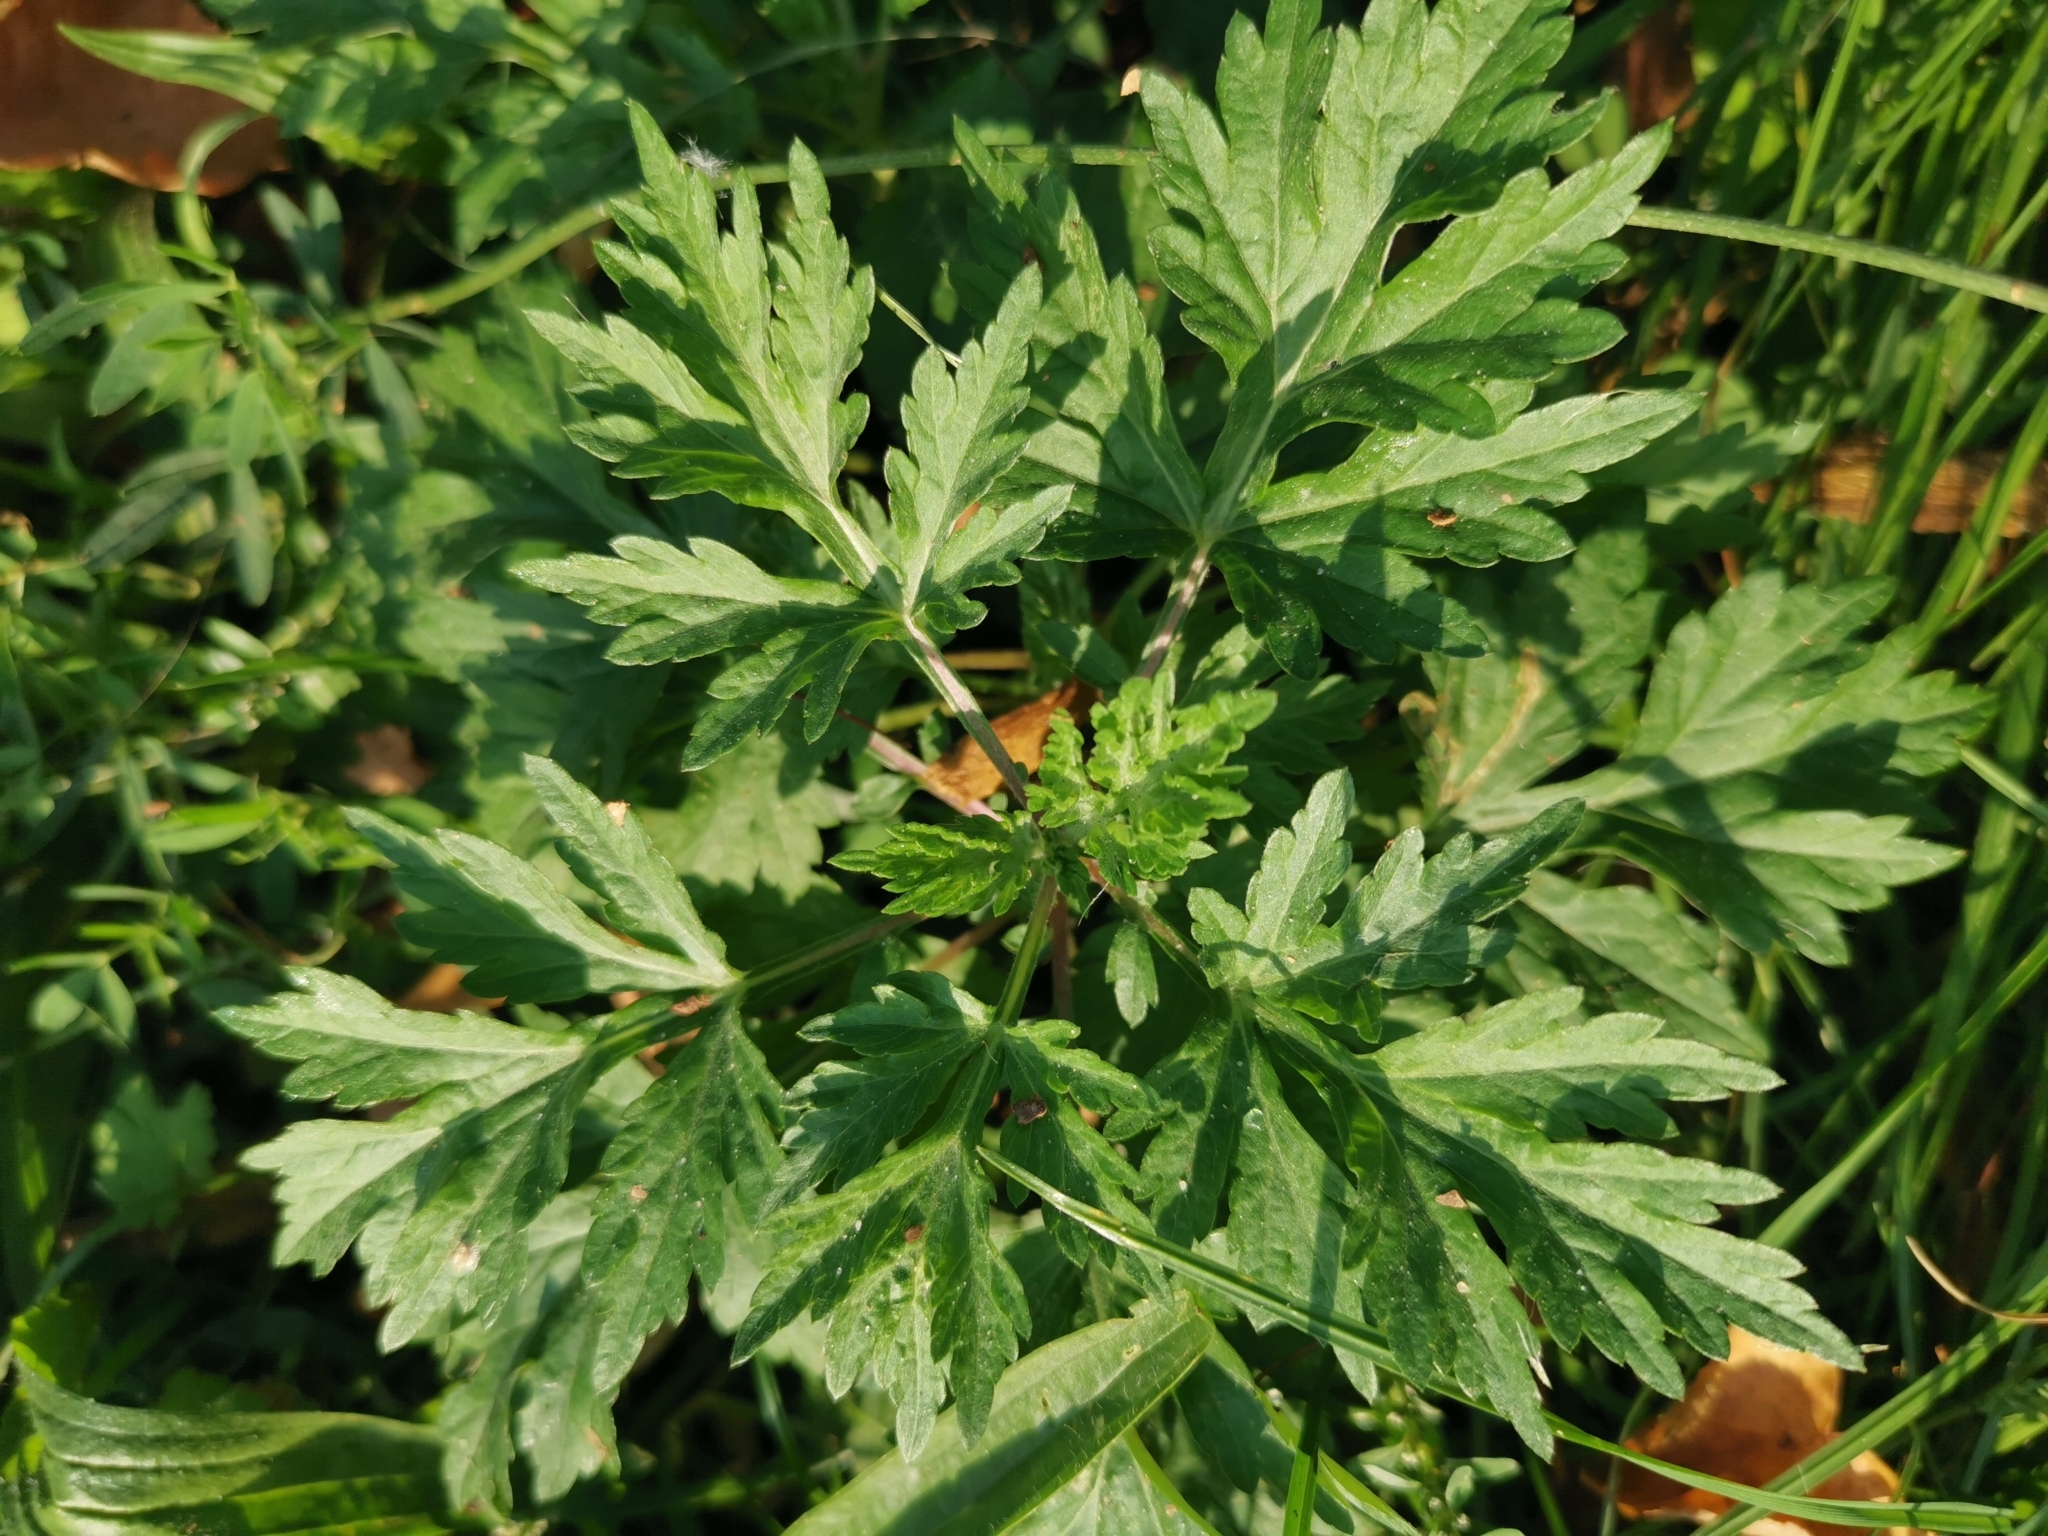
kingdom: Plantae
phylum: Tracheophyta
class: Magnoliopsida
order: Asterales
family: Asteraceae
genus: Artemisia
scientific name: Artemisia vulgaris
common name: Mugwort
